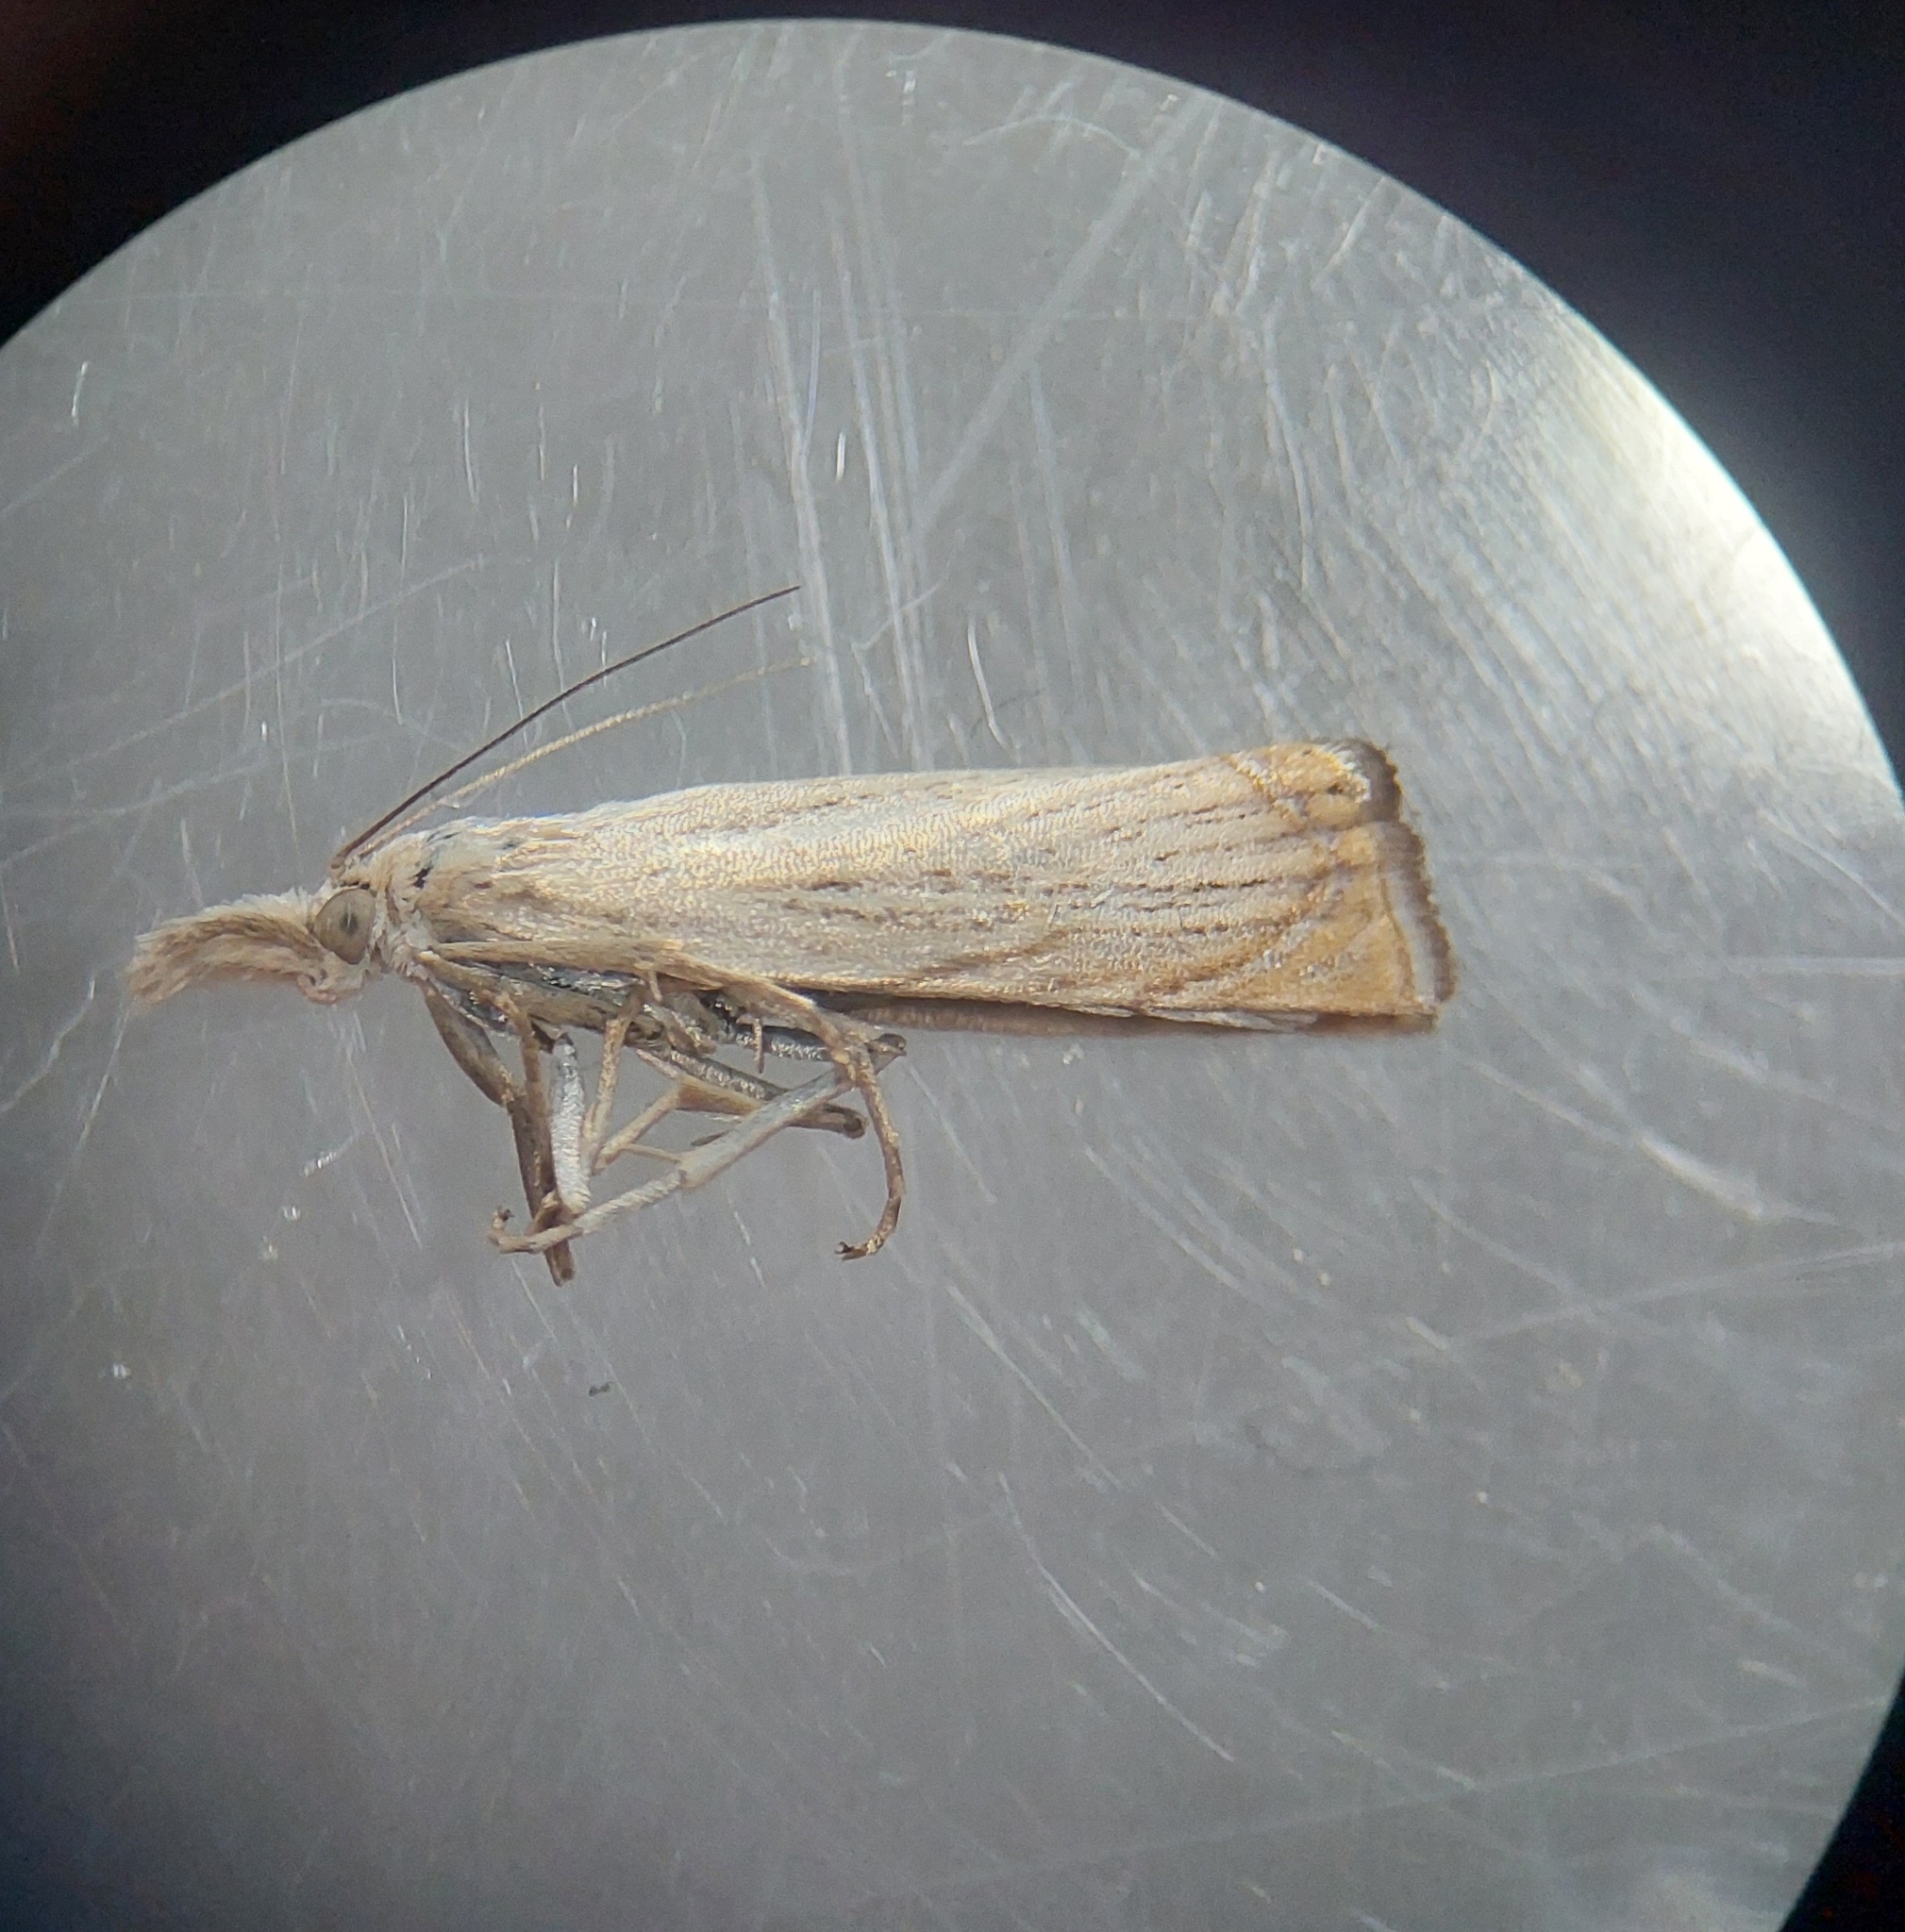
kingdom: Animalia
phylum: Arthropoda
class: Insecta
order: Lepidoptera
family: Crambidae
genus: Chrysoteuchia
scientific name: Chrysoteuchia culmella
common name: Garden grass-veneer
